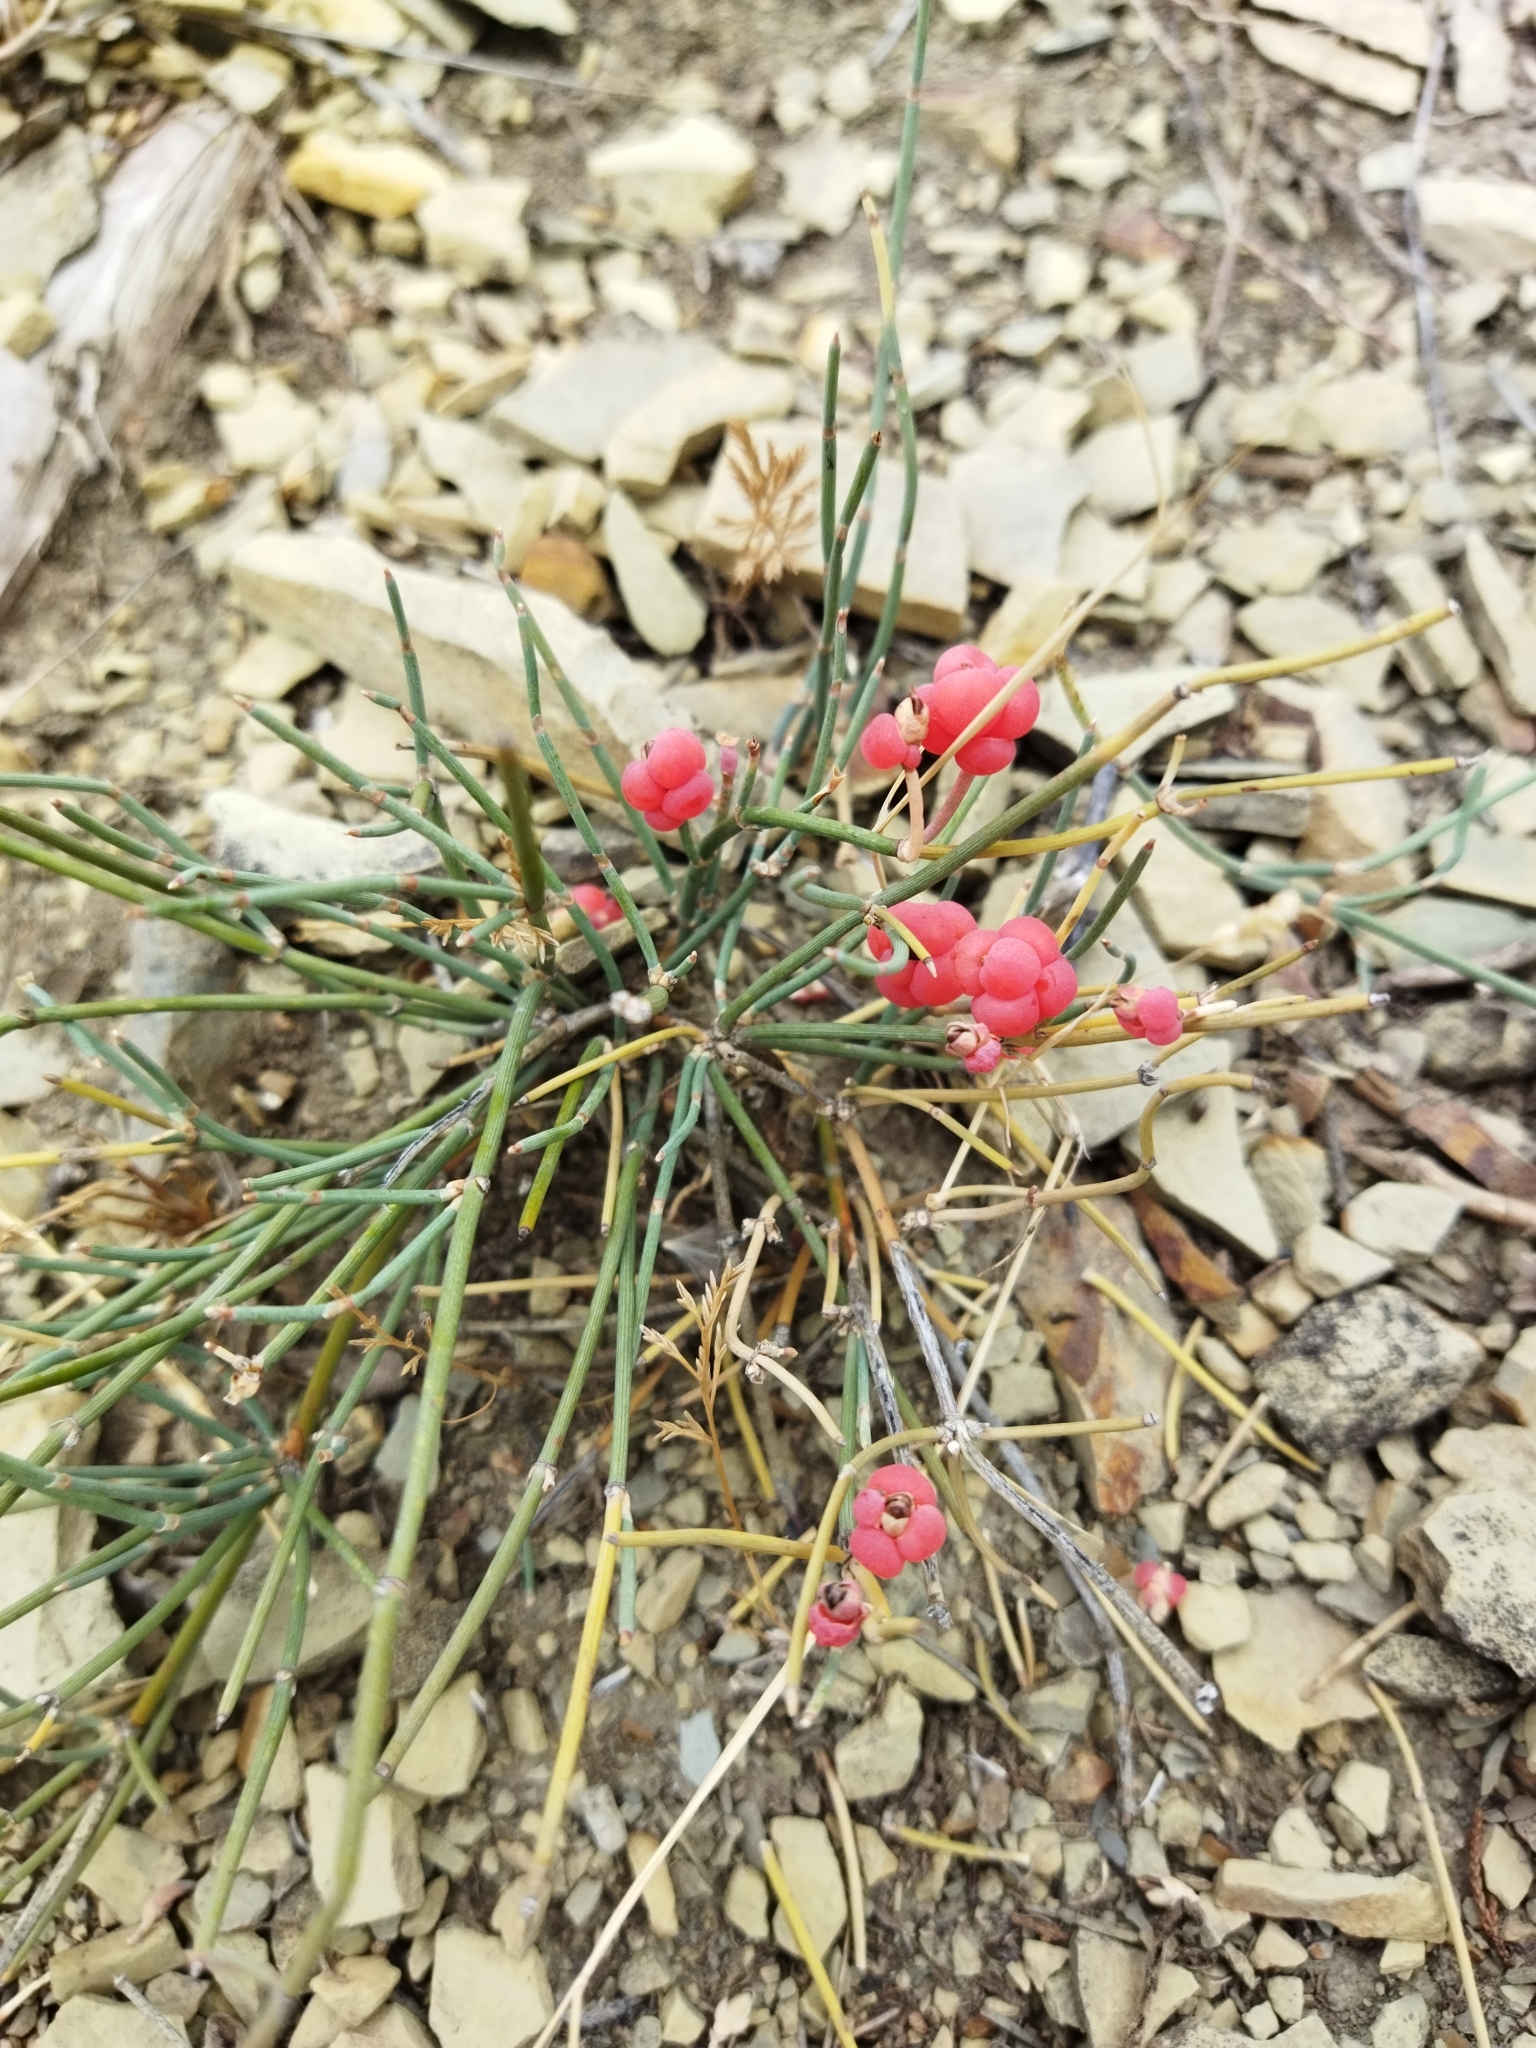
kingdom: Plantae
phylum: Tracheophyta
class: Gnetopsida
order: Ephedrales
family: Ephedraceae
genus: Ephedra
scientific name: Ephedra distachya
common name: Sea grape
